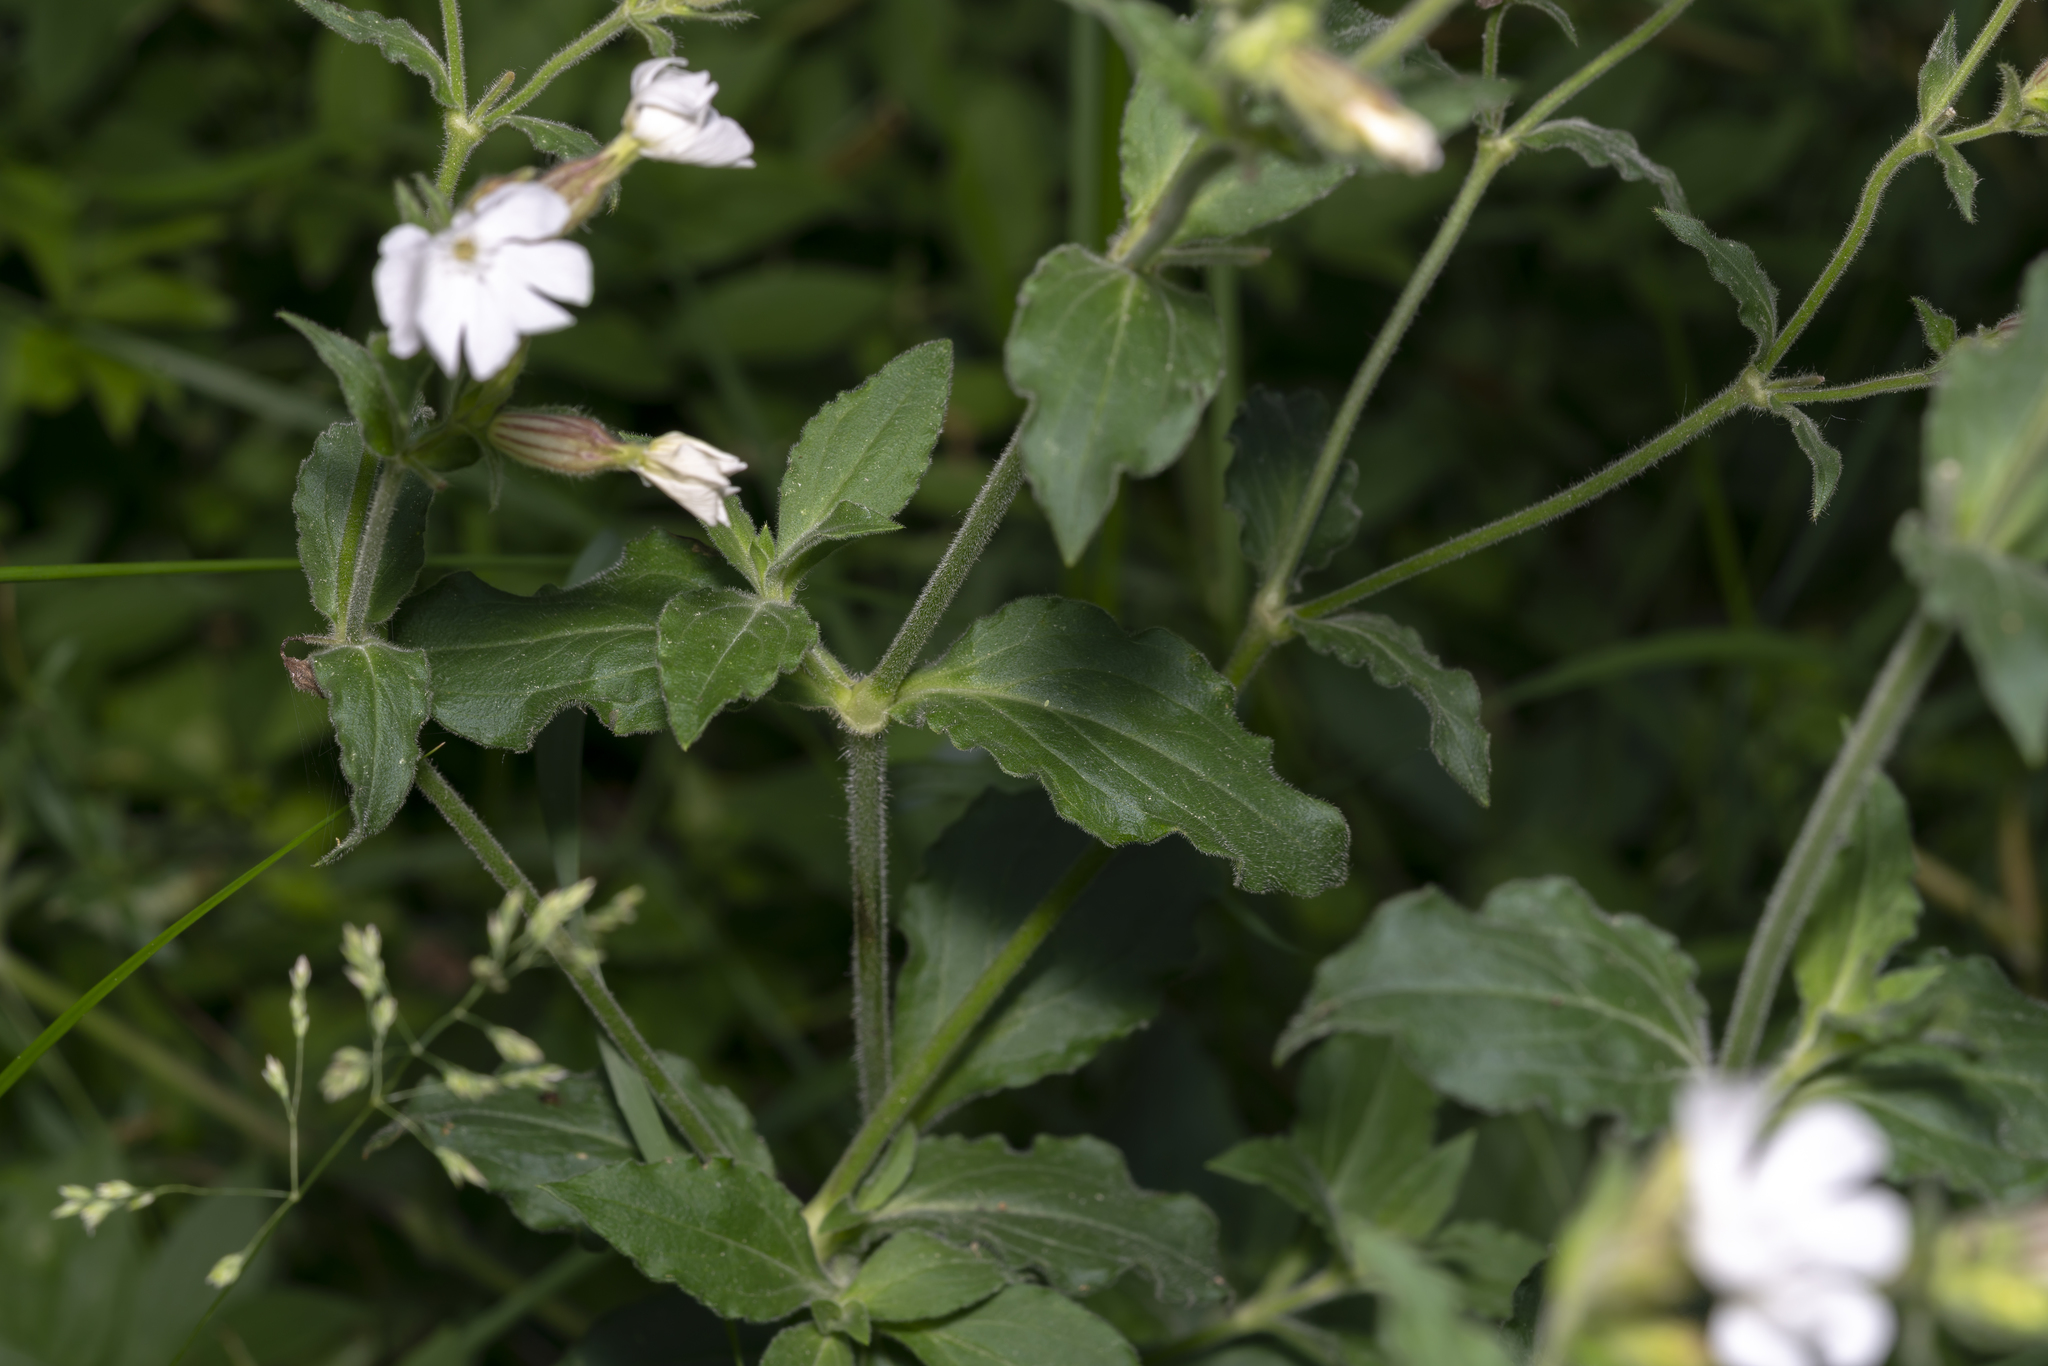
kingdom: Plantae
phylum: Tracheophyta
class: Magnoliopsida
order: Caryophyllales
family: Caryophyllaceae
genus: Silene
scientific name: Silene latifolia
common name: White campion
